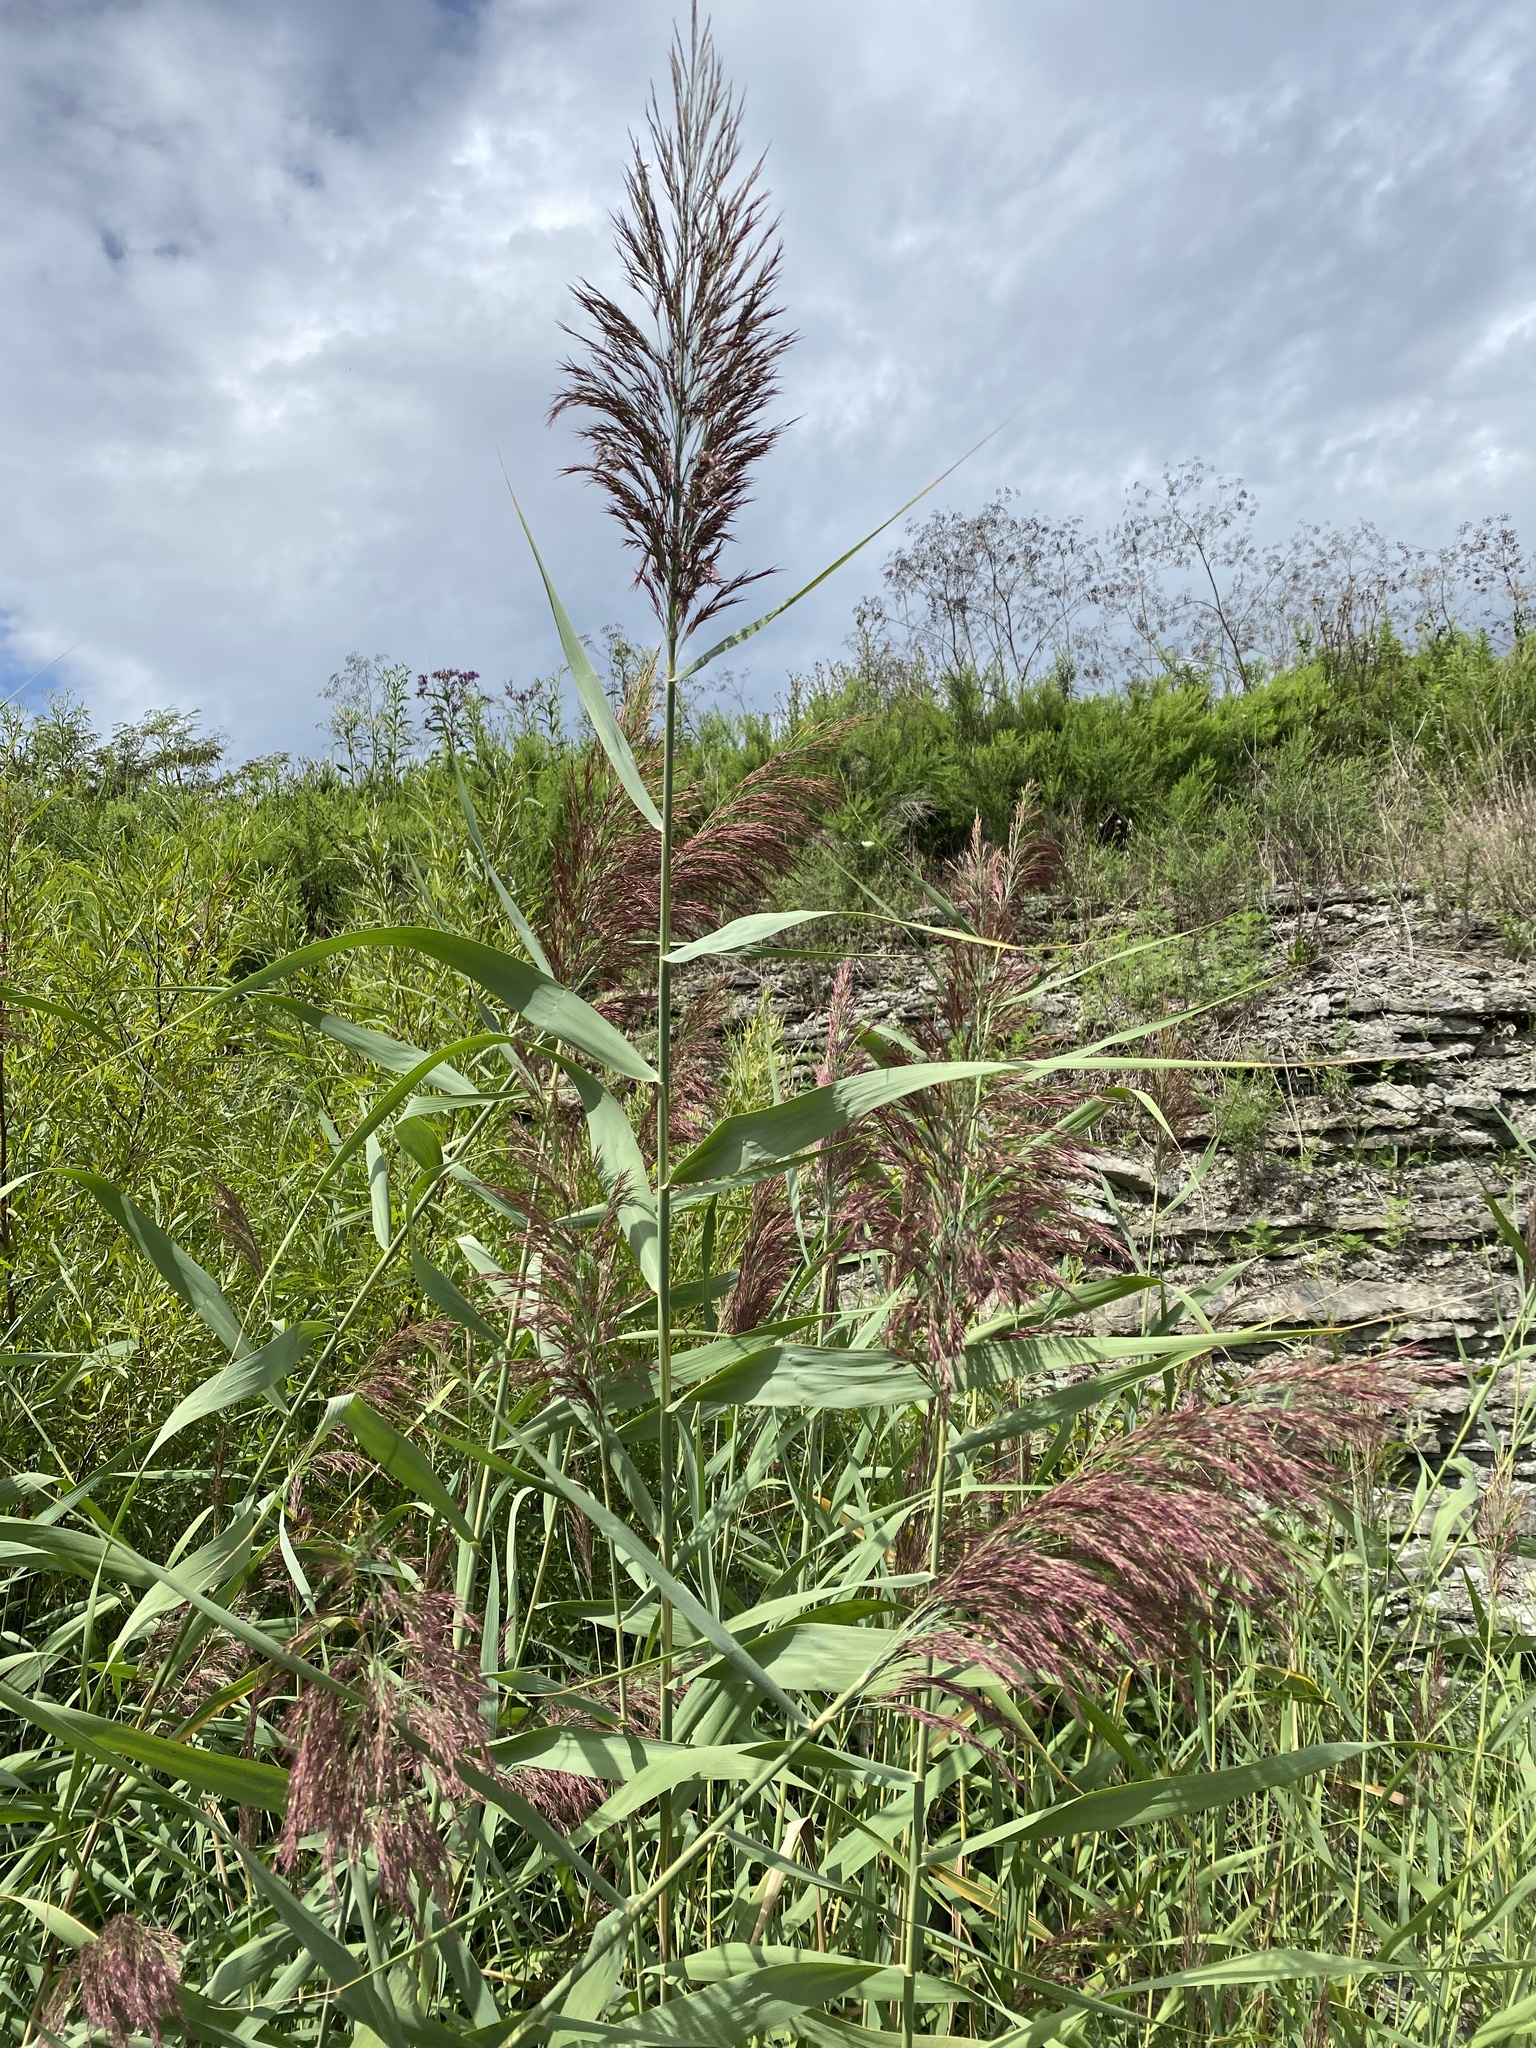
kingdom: Plantae
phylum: Tracheophyta
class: Liliopsida
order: Poales
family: Poaceae
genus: Phragmites
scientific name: Phragmites australis
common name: Common reed
